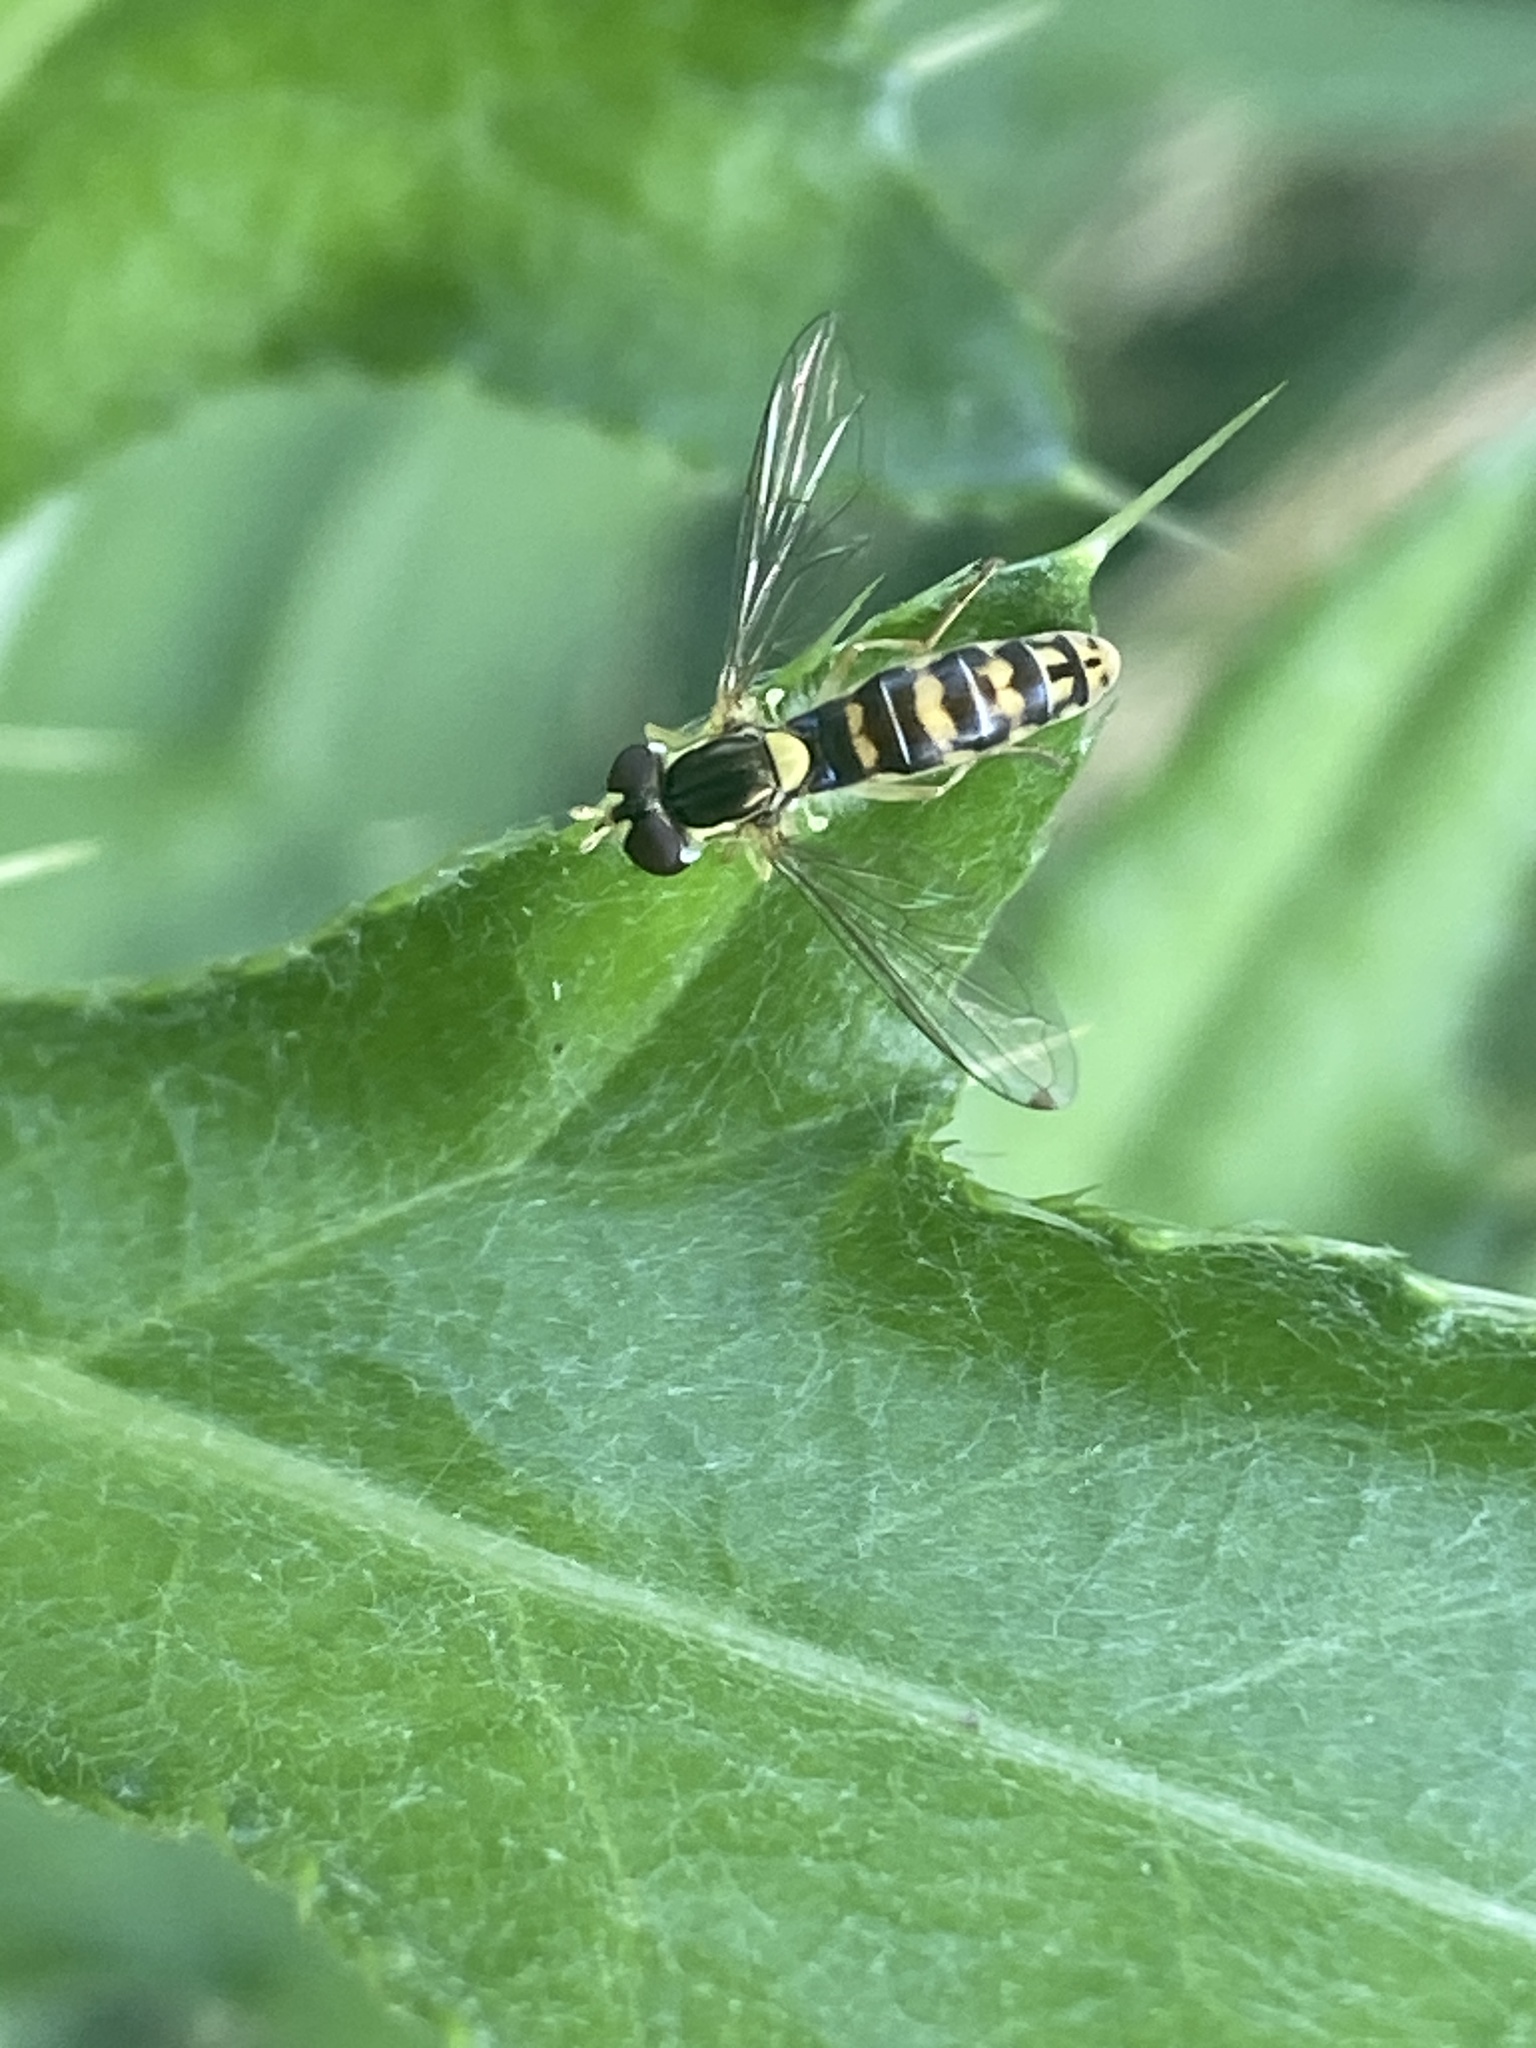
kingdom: Animalia
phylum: Arthropoda
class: Insecta
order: Diptera
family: Syrphidae
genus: Sphaerophoria
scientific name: Sphaerophoria
